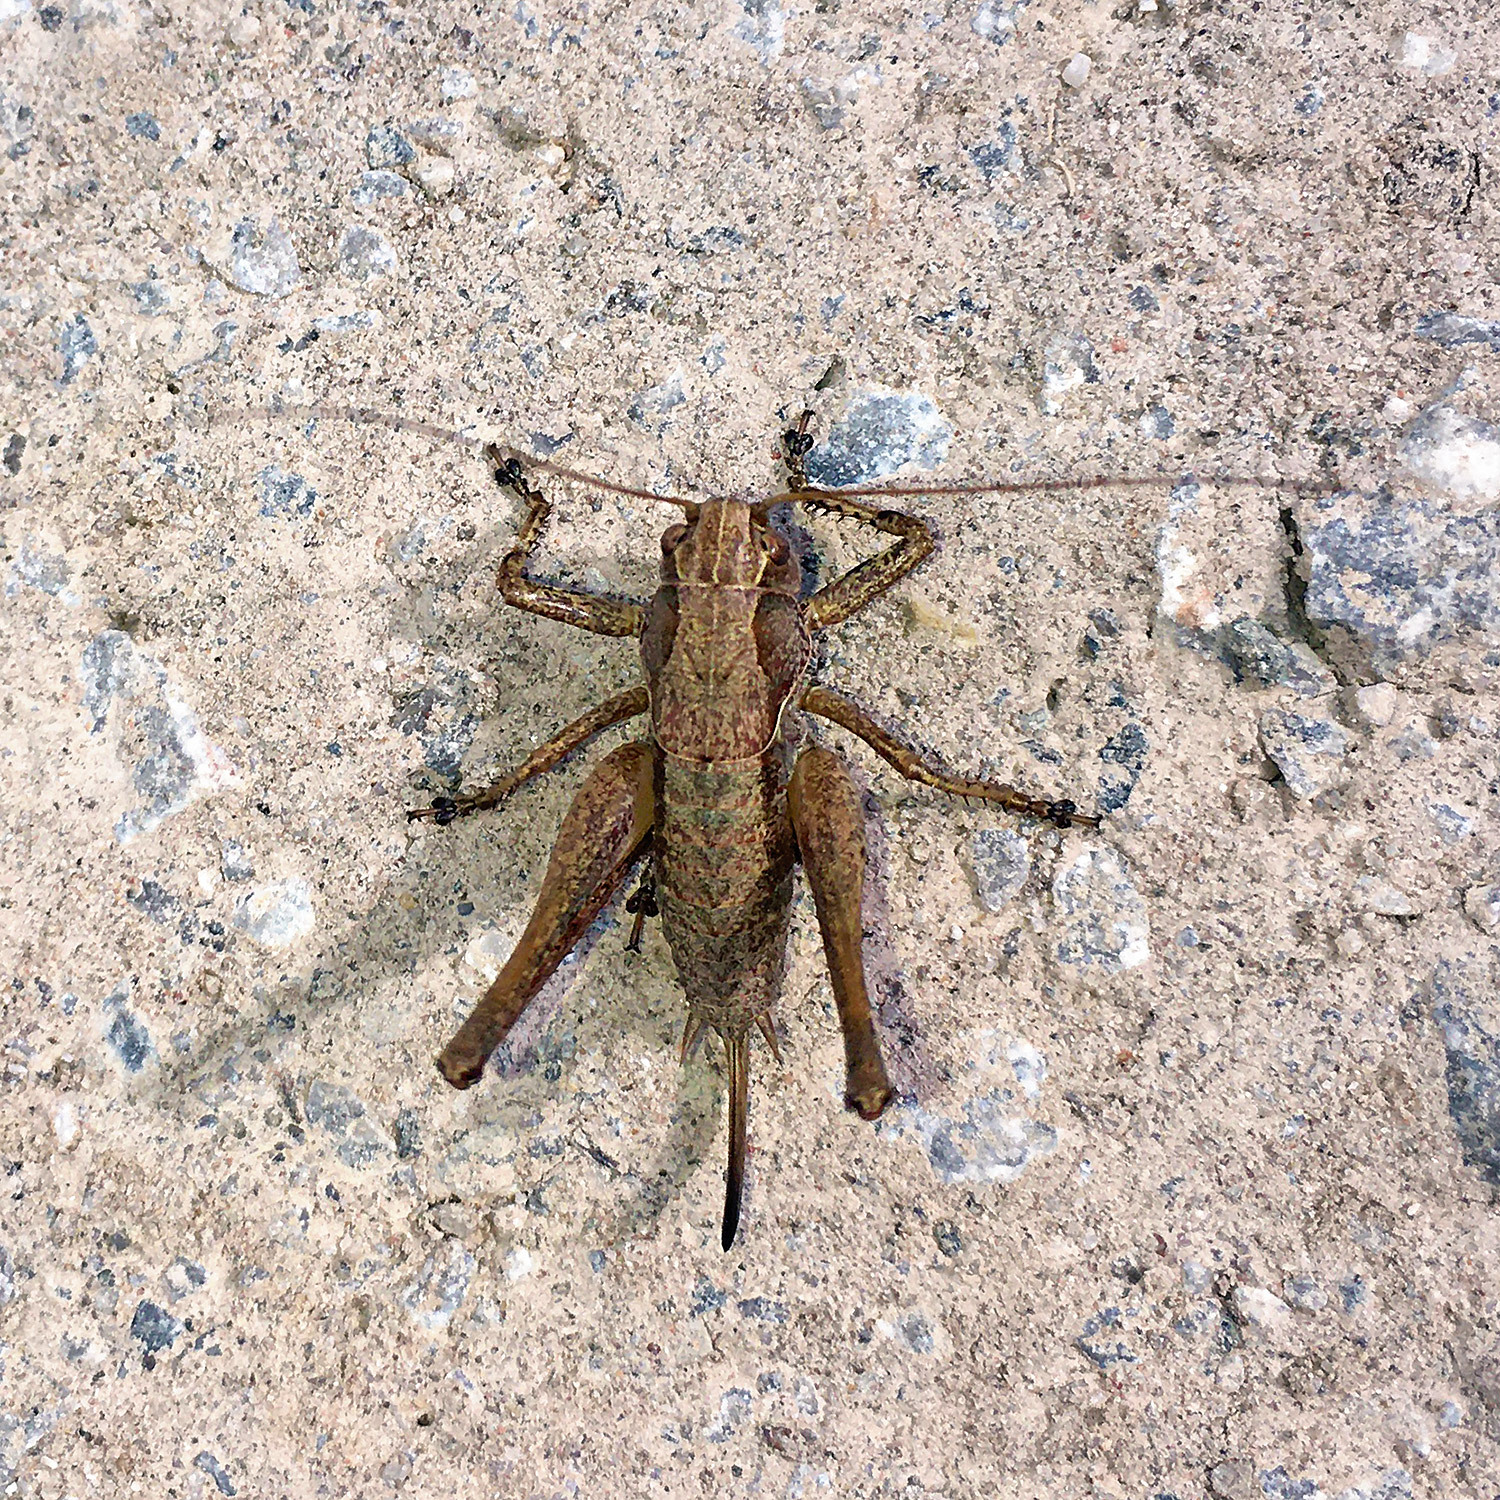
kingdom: Animalia
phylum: Arthropoda
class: Insecta
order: Orthoptera
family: Tettigoniidae
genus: Pholidoptera
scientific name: Pholidoptera griseoaptera
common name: Dark bush-cricket
